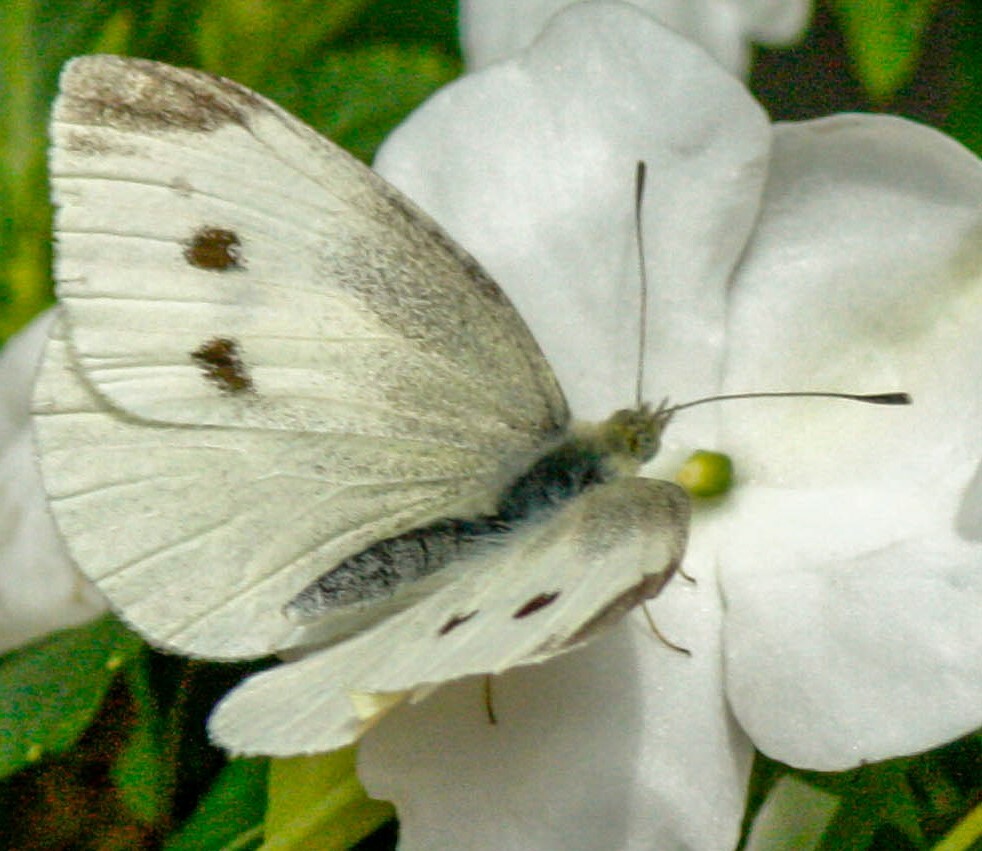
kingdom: Animalia
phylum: Arthropoda
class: Insecta
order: Lepidoptera
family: Pieridae
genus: Pieris
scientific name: Pieris rapae
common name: Small white
